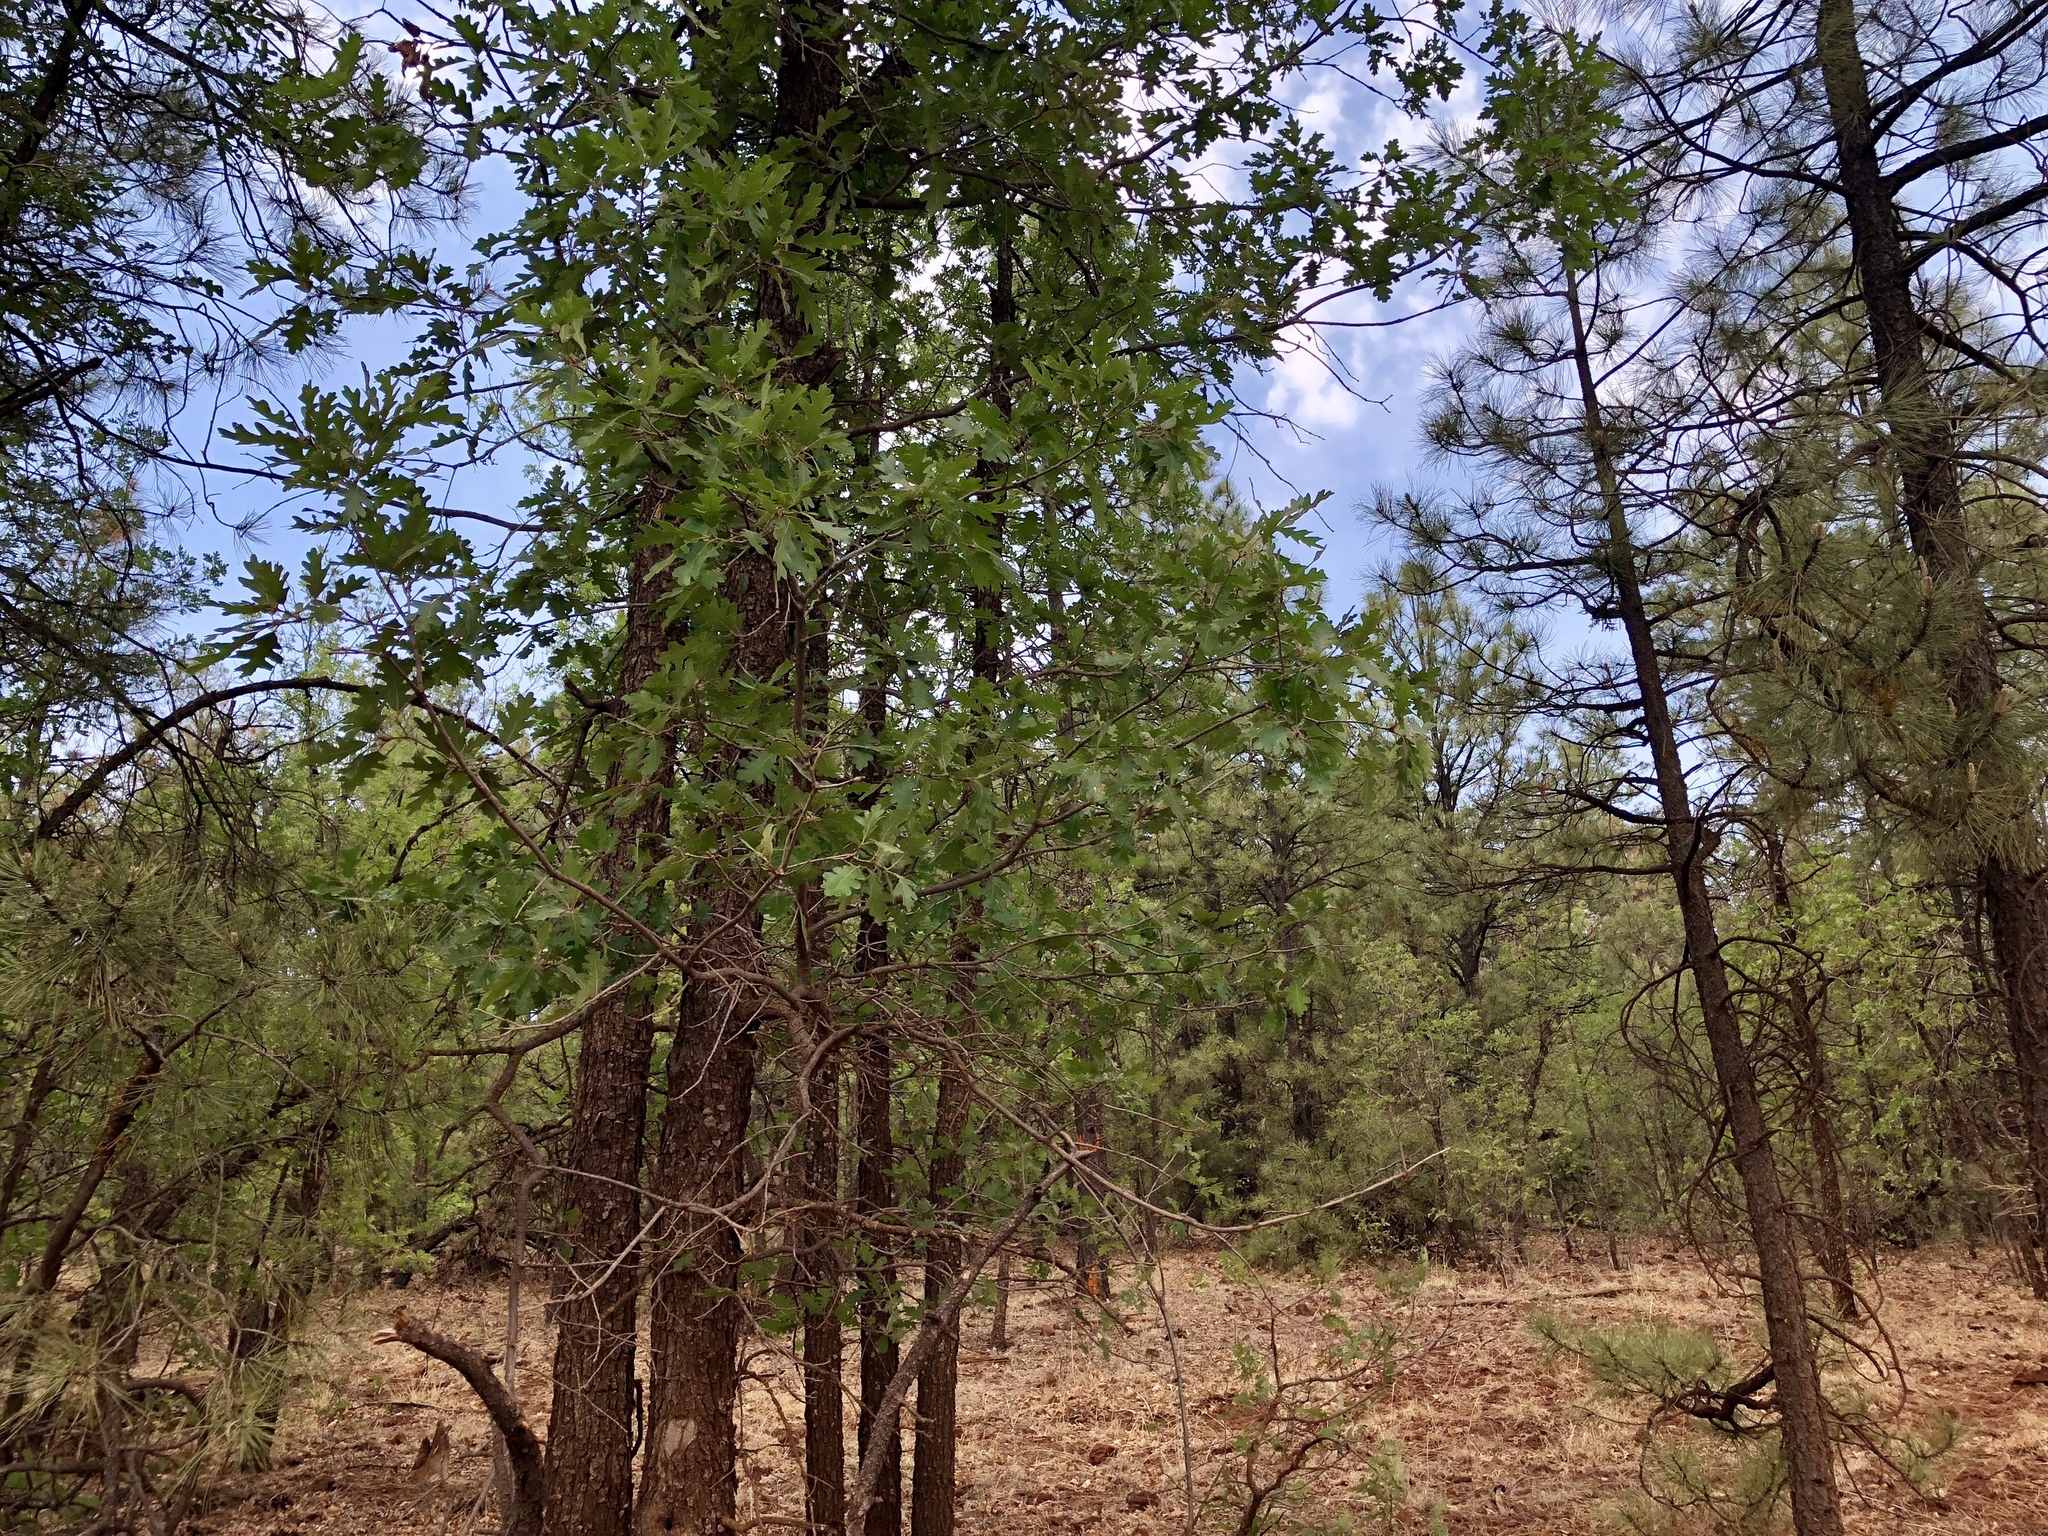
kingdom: Plantae
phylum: Tracheophyta
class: Magnoliopsida
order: Fagales
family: Fagaceae
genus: Quercus
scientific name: Quercus gambelii
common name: Gambel oak
